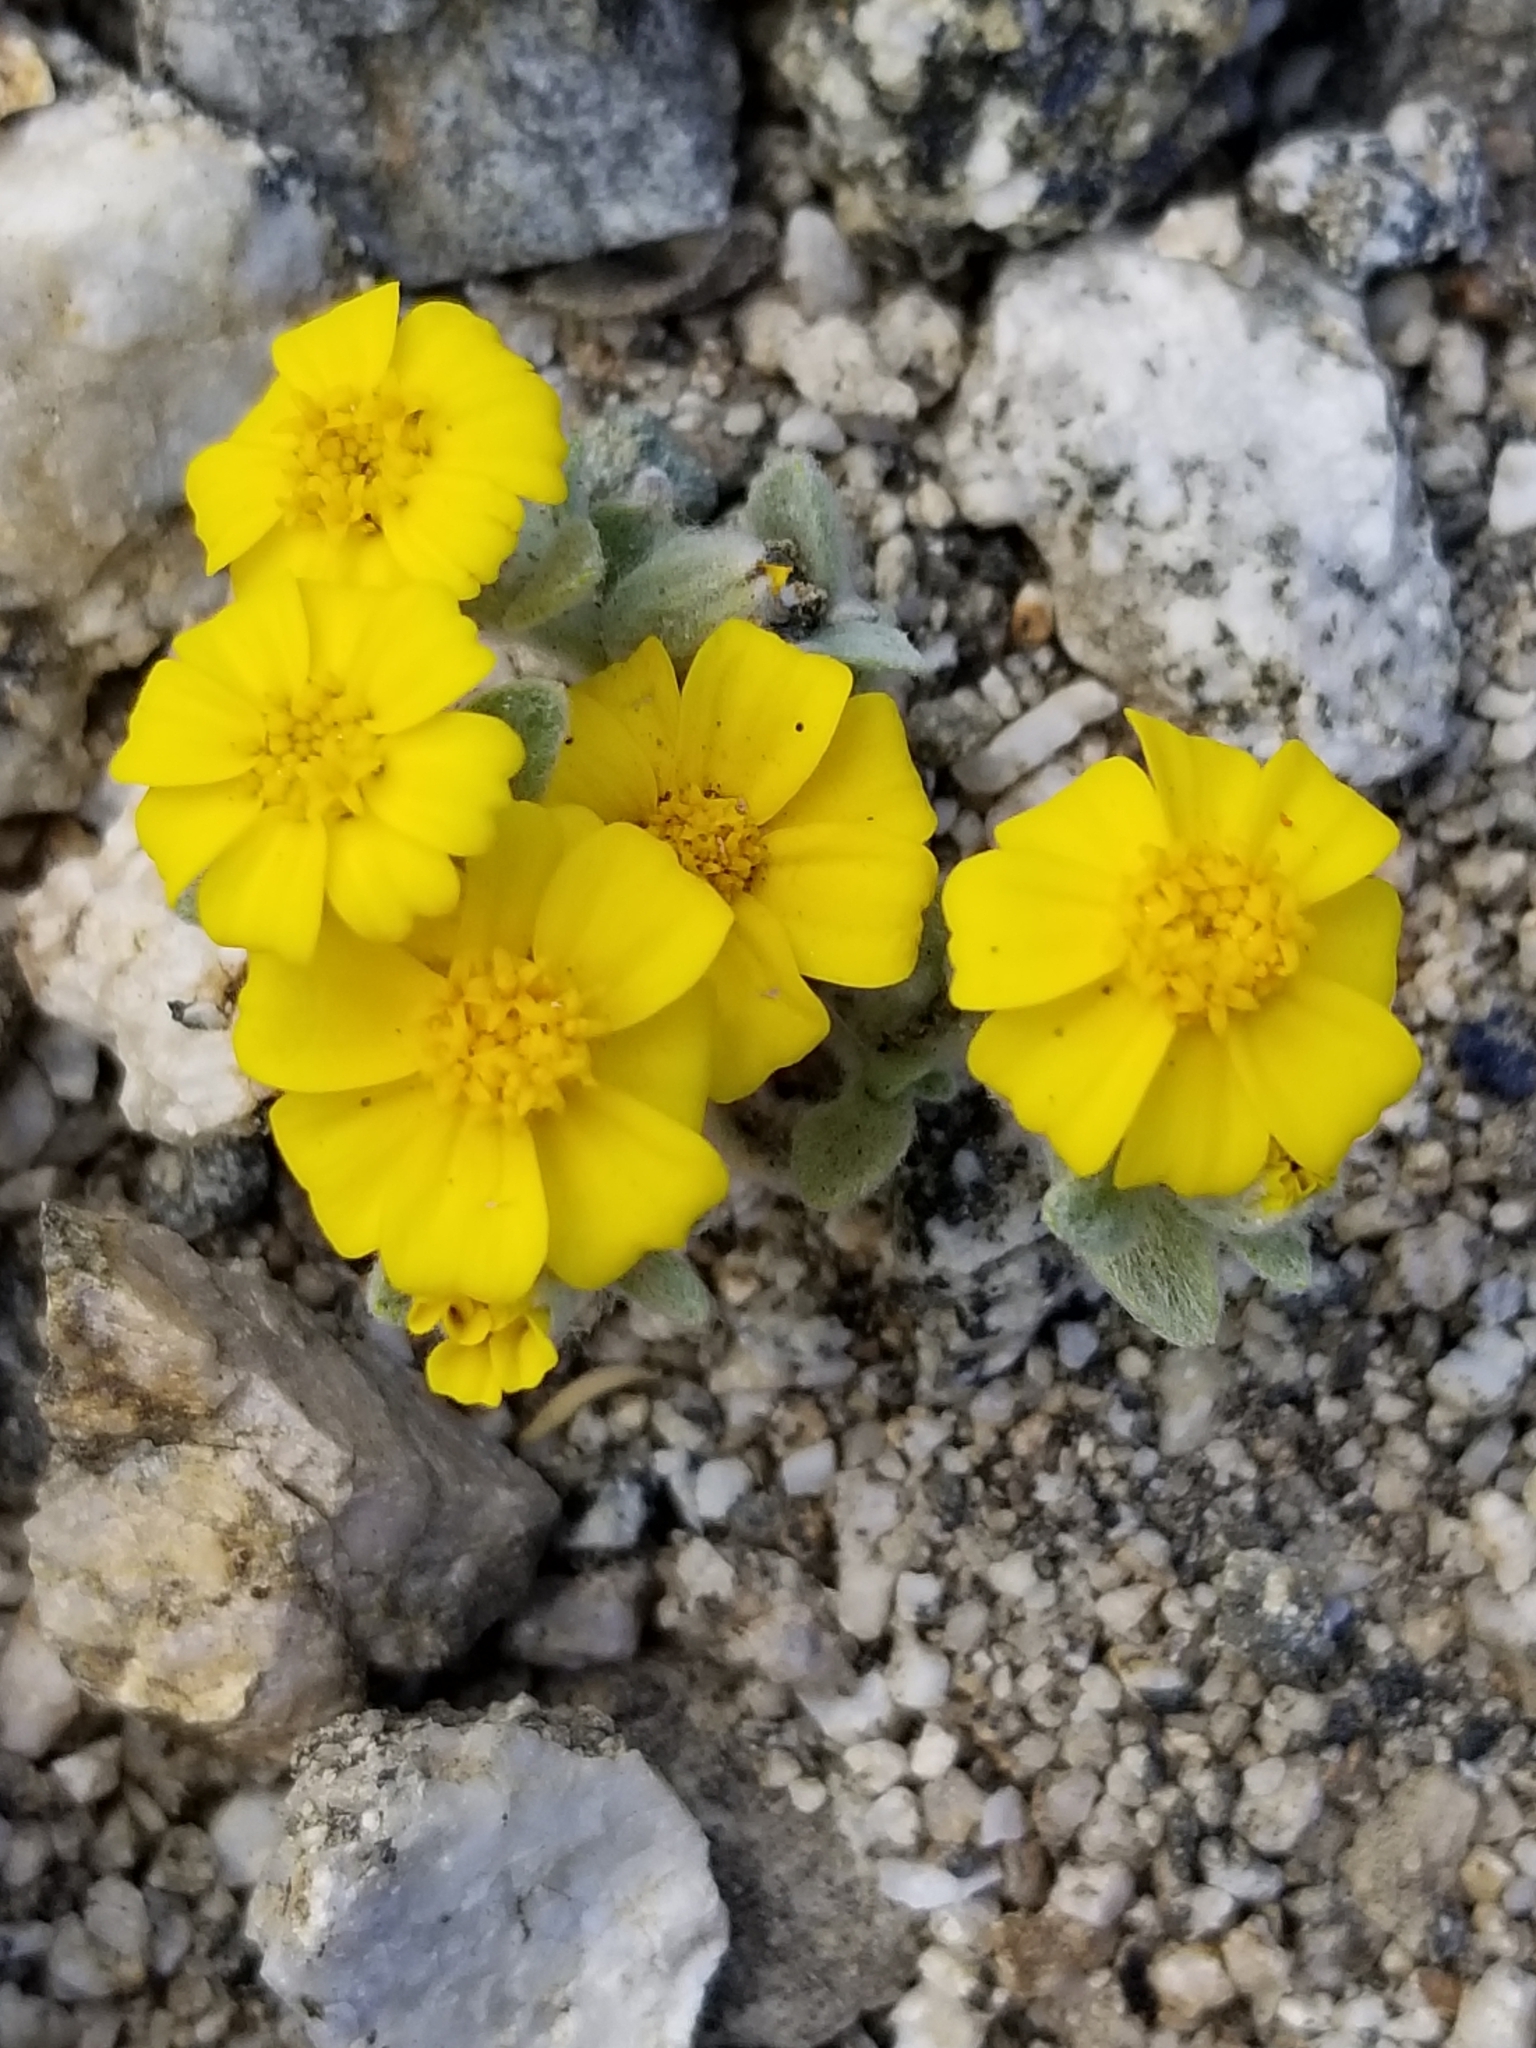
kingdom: Plantae
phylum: Tracheophyta
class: Magnoliopsida
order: Asterales
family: Asteraceae
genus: Eriophyllum
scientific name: Eriophyllum wallacei
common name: Wallace's woolly daisy
